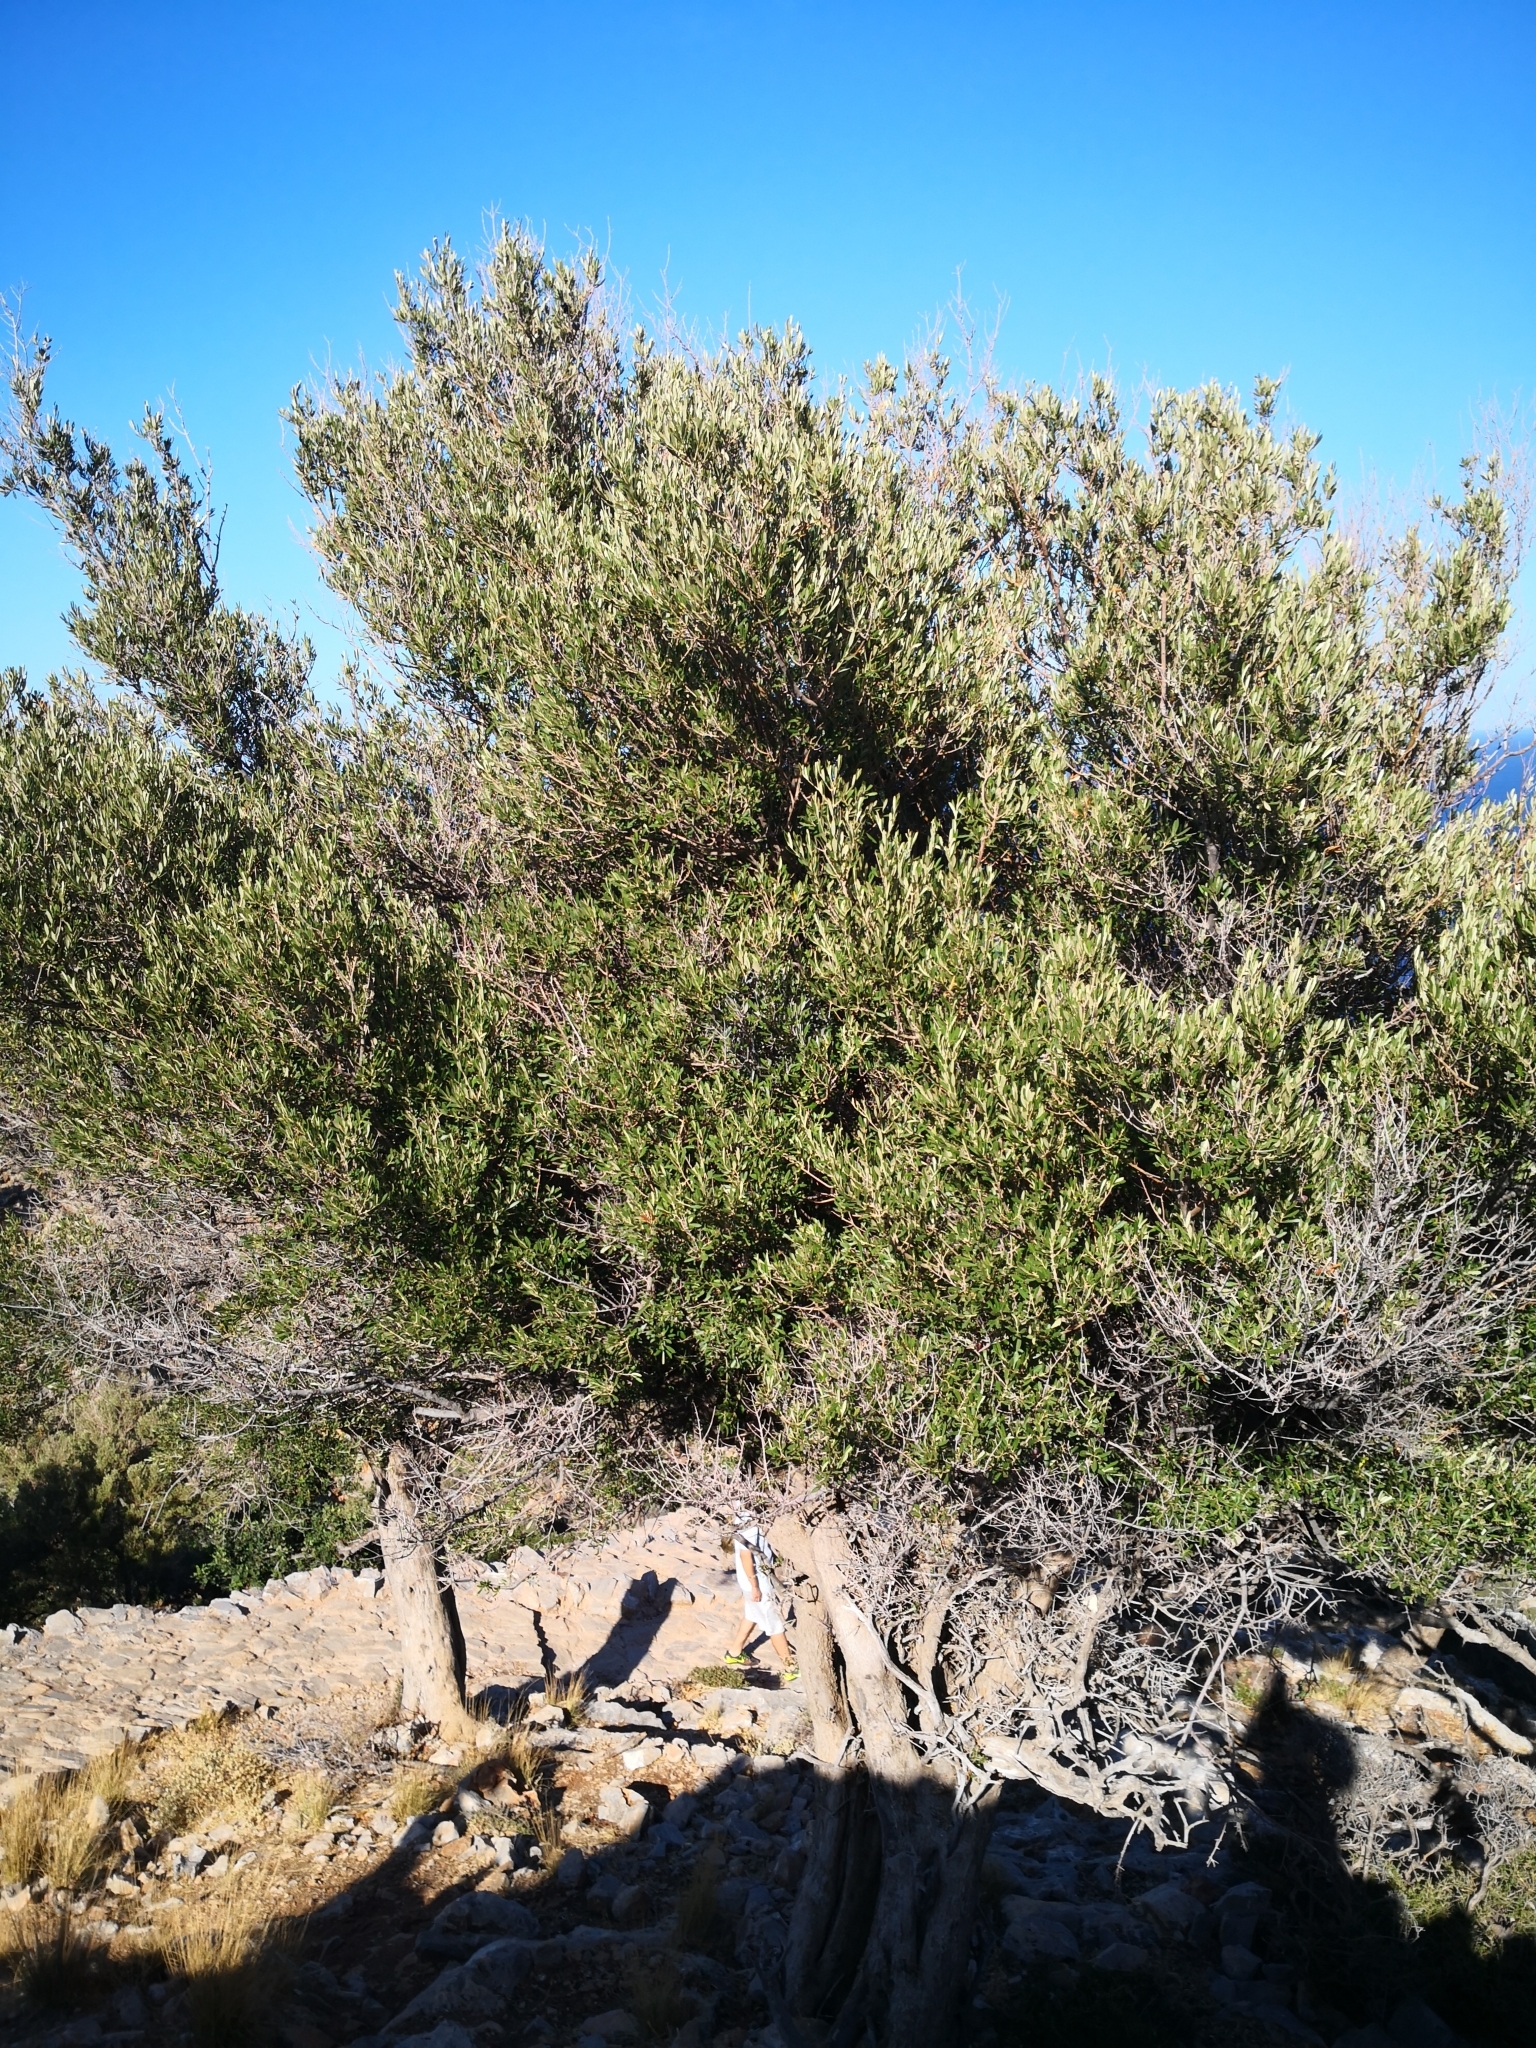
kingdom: Plantae
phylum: Tracheophyta
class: Magnoliopsida
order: Lamiales
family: Oleaceae
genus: Olea
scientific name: Olea europaea
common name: Olive
